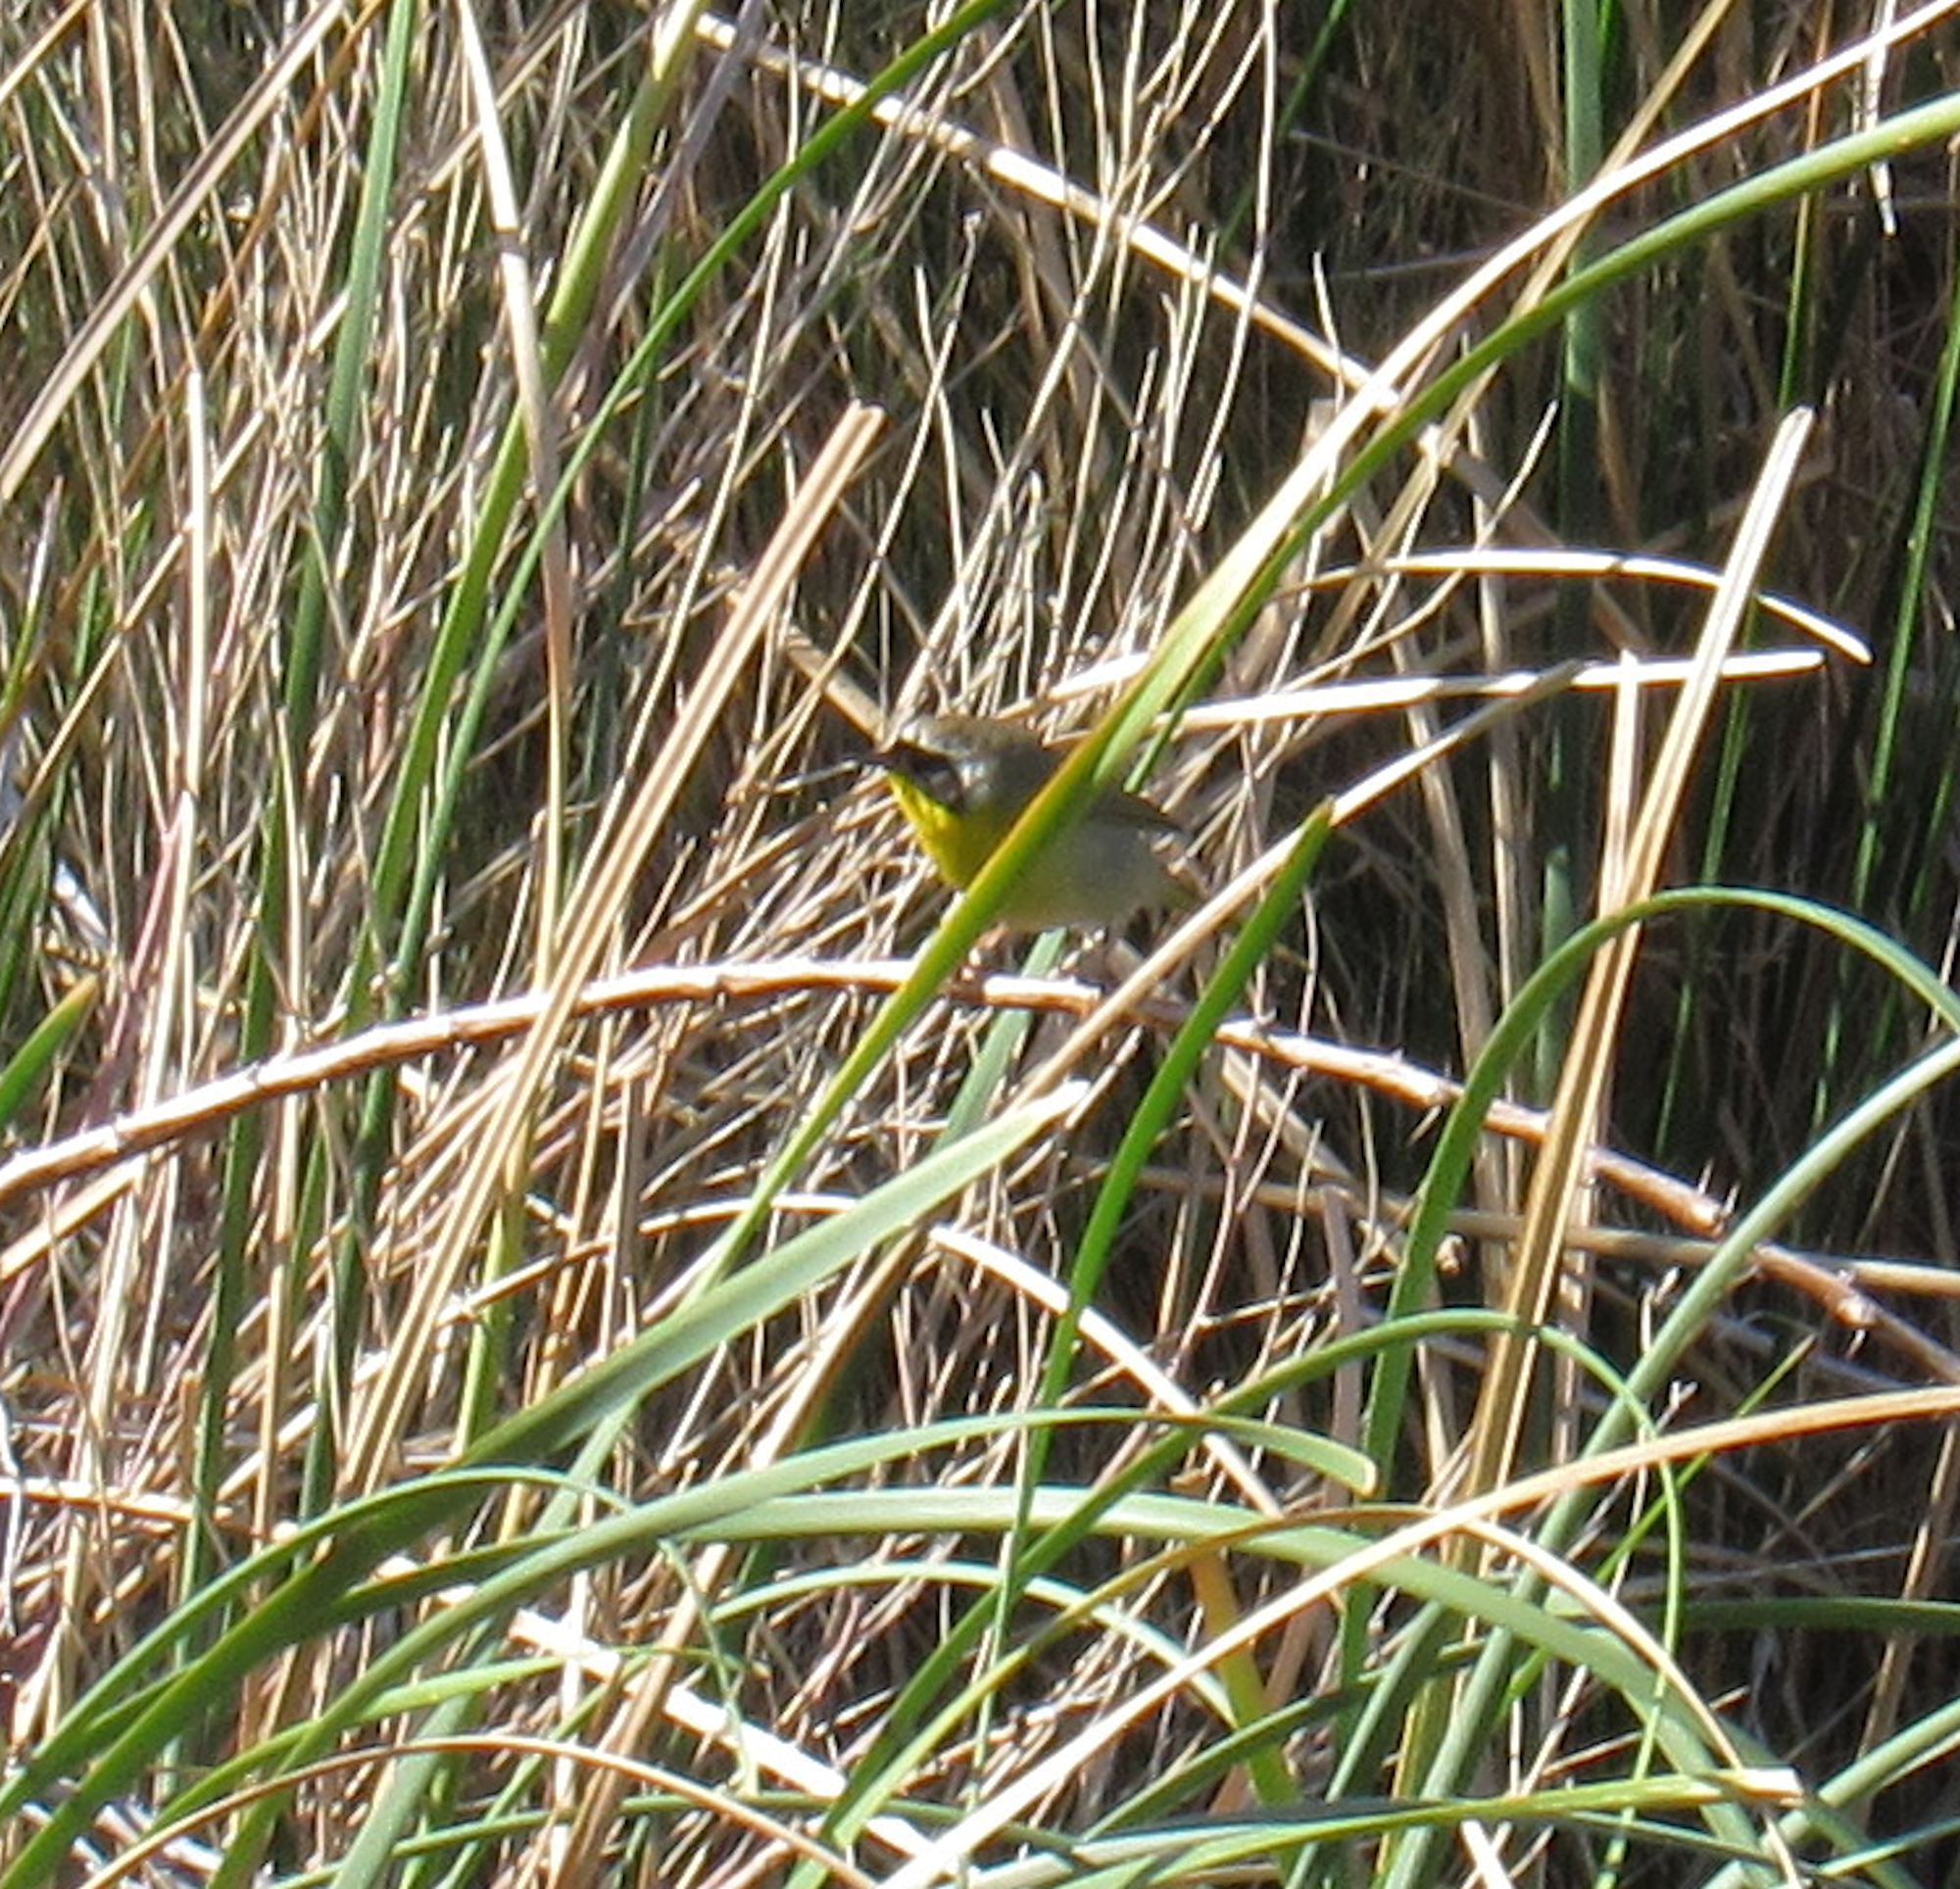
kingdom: Animalia
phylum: Chordata
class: Aves
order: Passeriformes
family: Parulidae
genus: Geothlypis
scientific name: Geothlypis trichas
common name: Common yellowthroat
